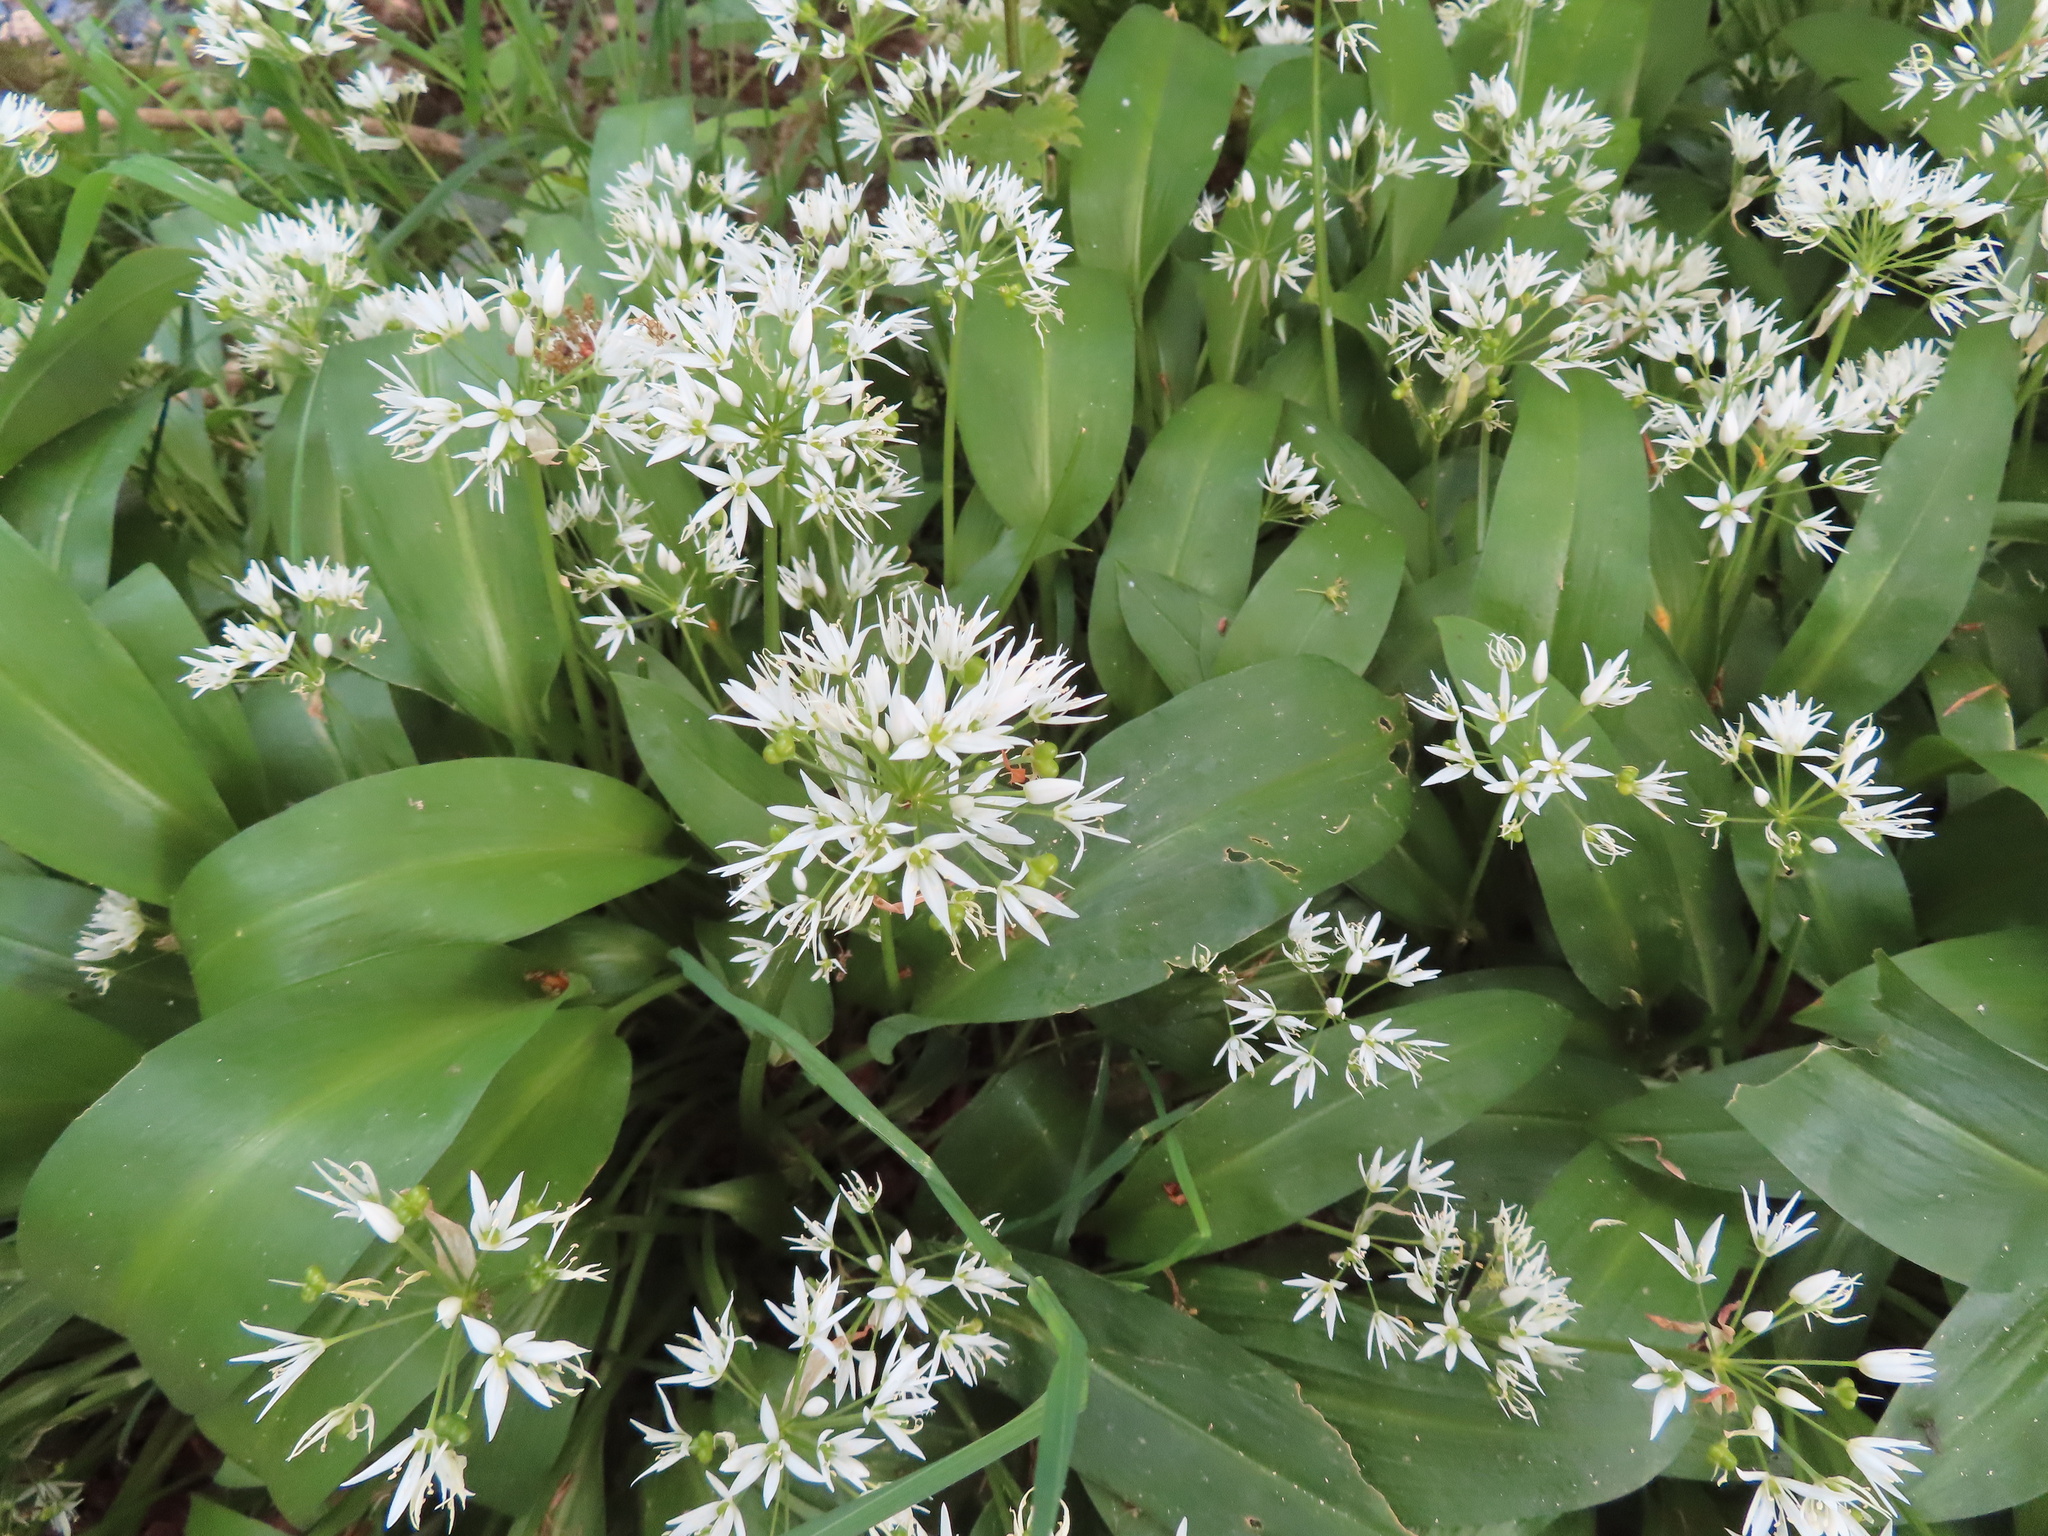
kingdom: Plantae
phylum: Tracheophyta
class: Liliopsida
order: Asparagales
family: Amaryllidaceae
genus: Allium
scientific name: Allium ursinum
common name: Ramsons
